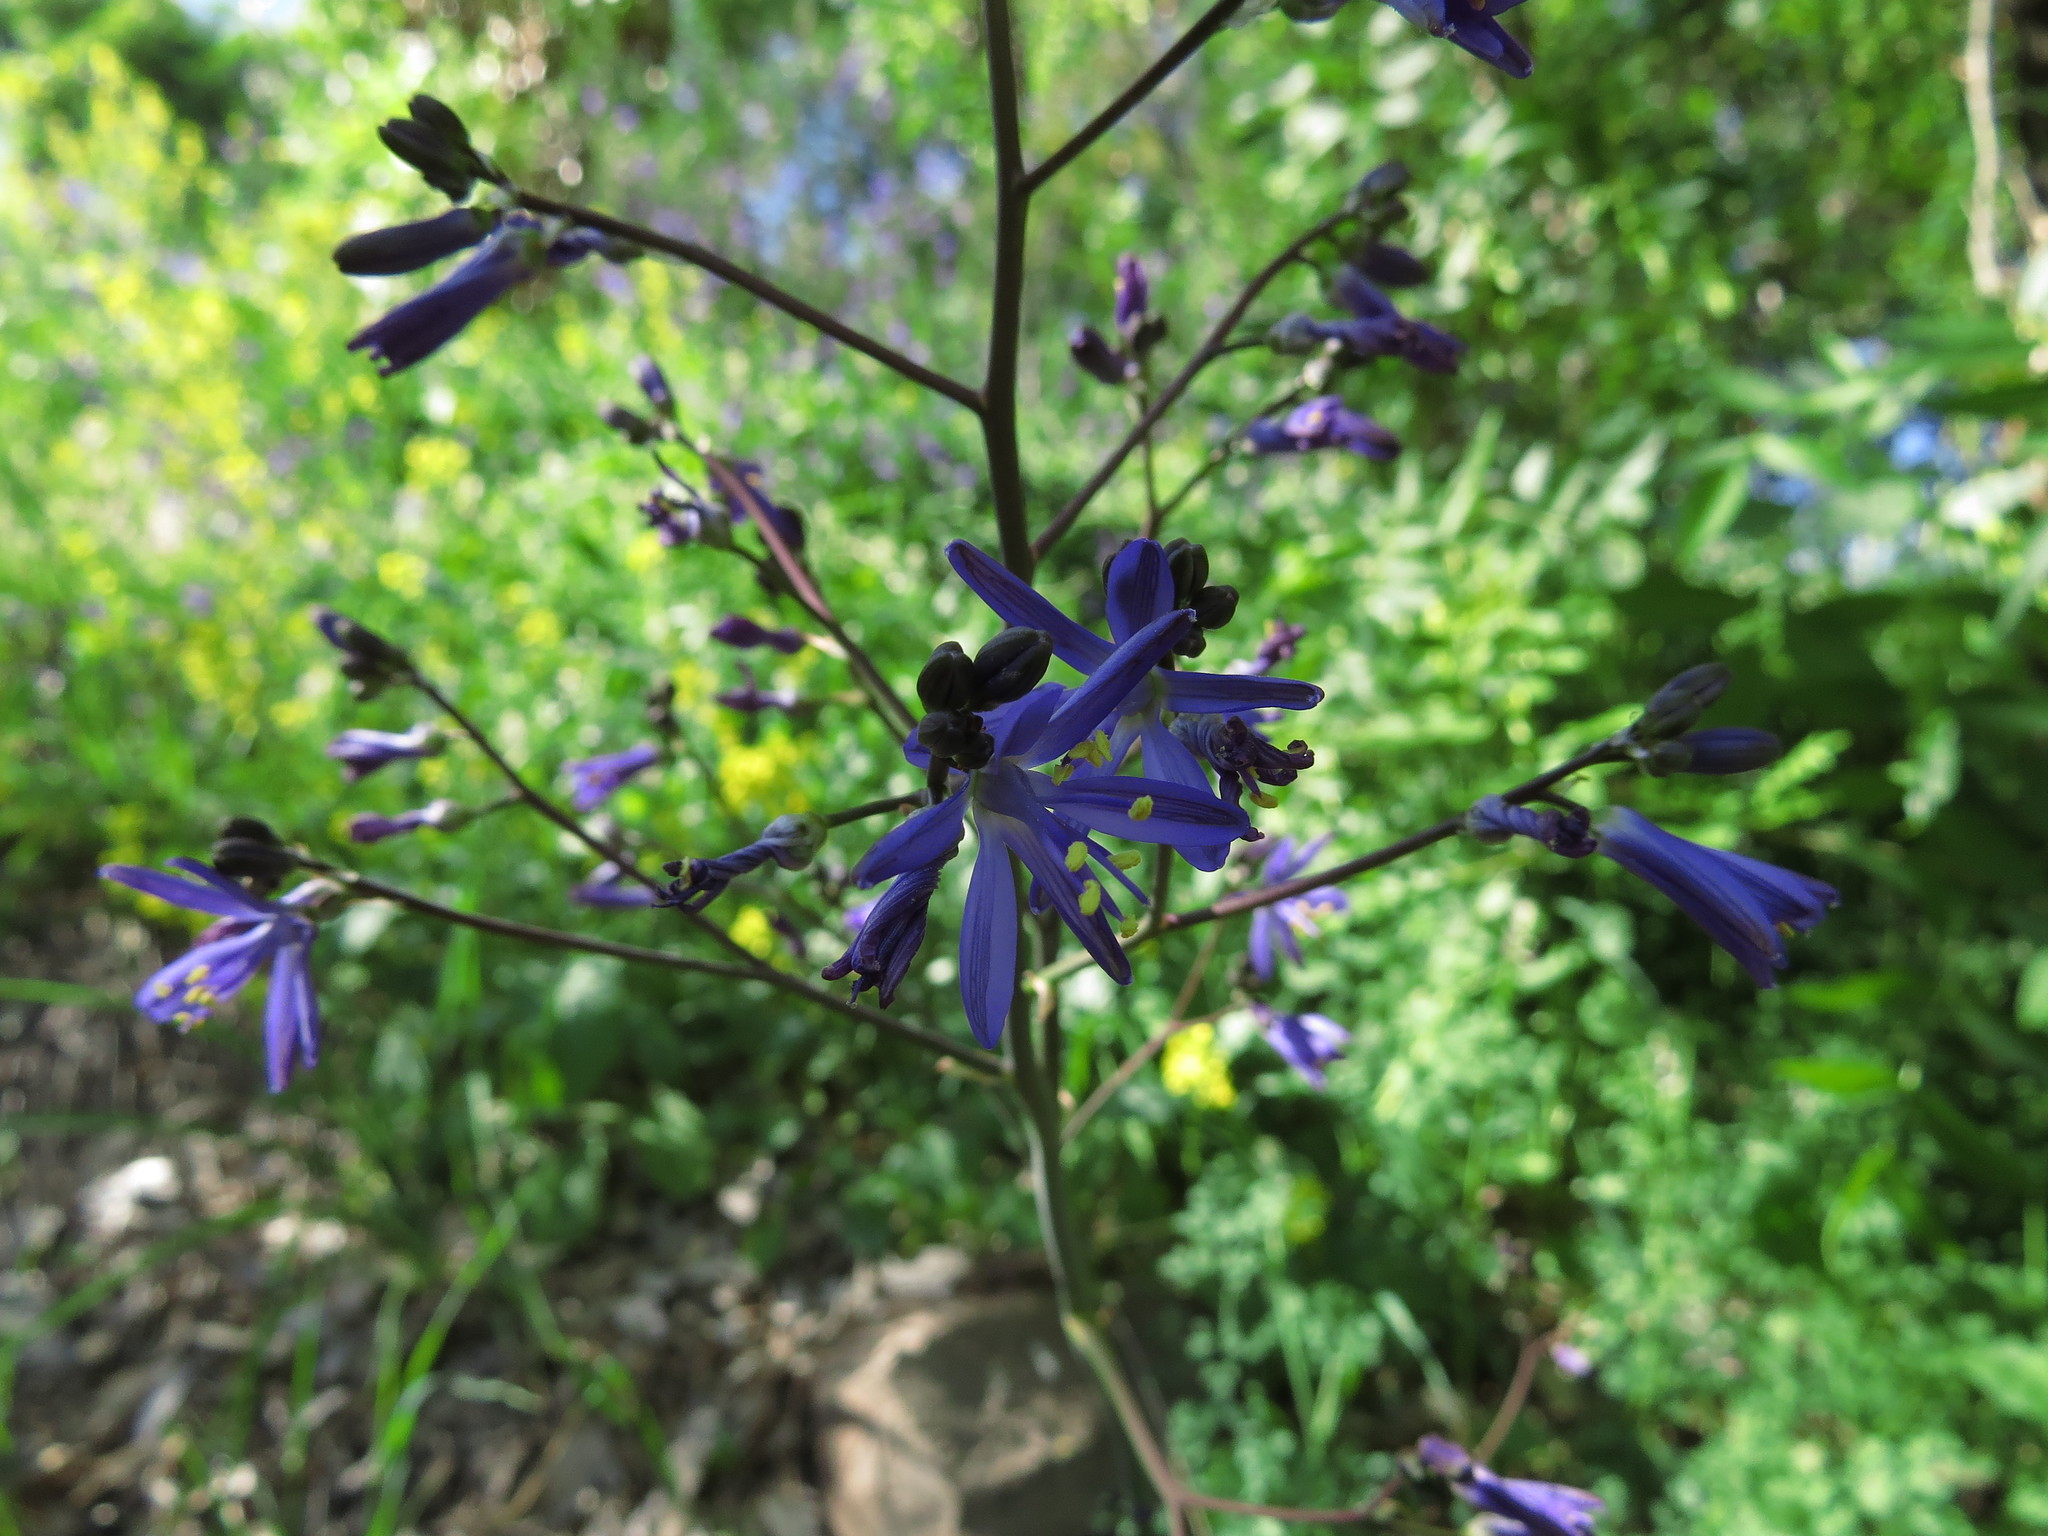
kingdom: Plantae
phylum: Tracheophyta
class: Liliopsida
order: Asparagales
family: Asphodelaceae
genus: Pasithea
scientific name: Pasithea caerulea
